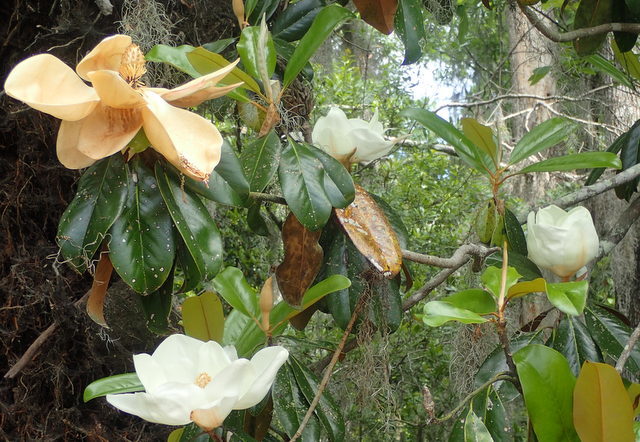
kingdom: Plantae
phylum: Tracheophyta
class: Magnoliopsida
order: Magnoliales
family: Magnoliaceae
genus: Magnolia
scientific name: Magnolia grandiflora
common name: Southern magnolia
